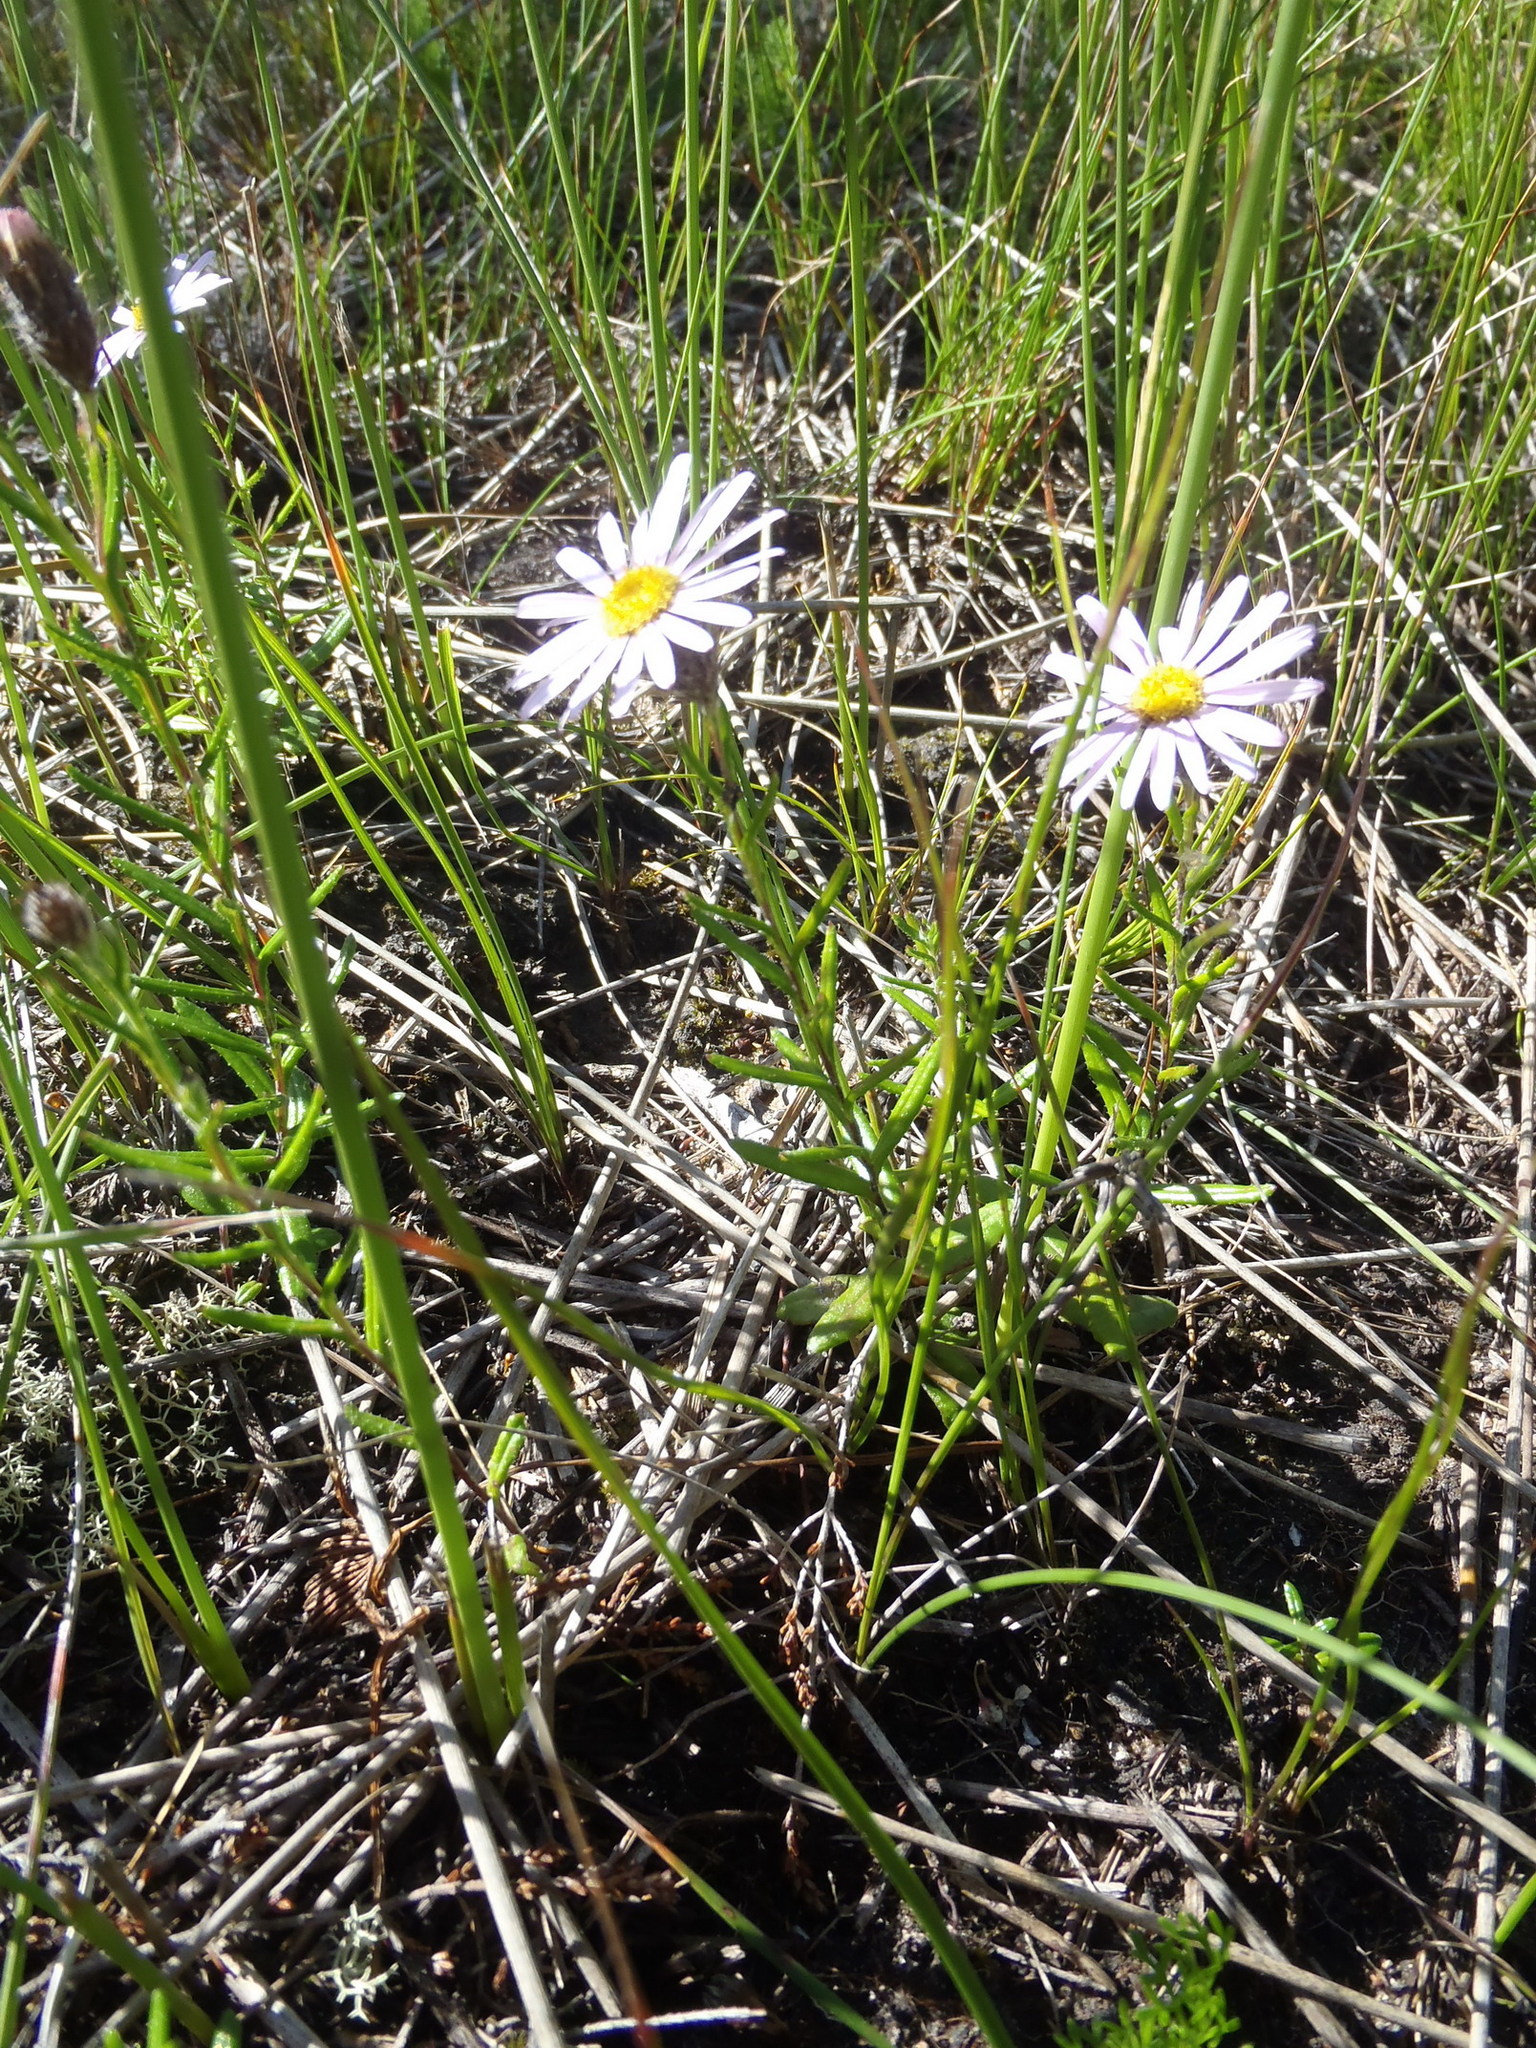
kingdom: Plantae
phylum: Tracheophyta
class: Magnoliopsida
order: Asterales
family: Asteraceae
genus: Athrixia
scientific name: Athrixia heterophylla
